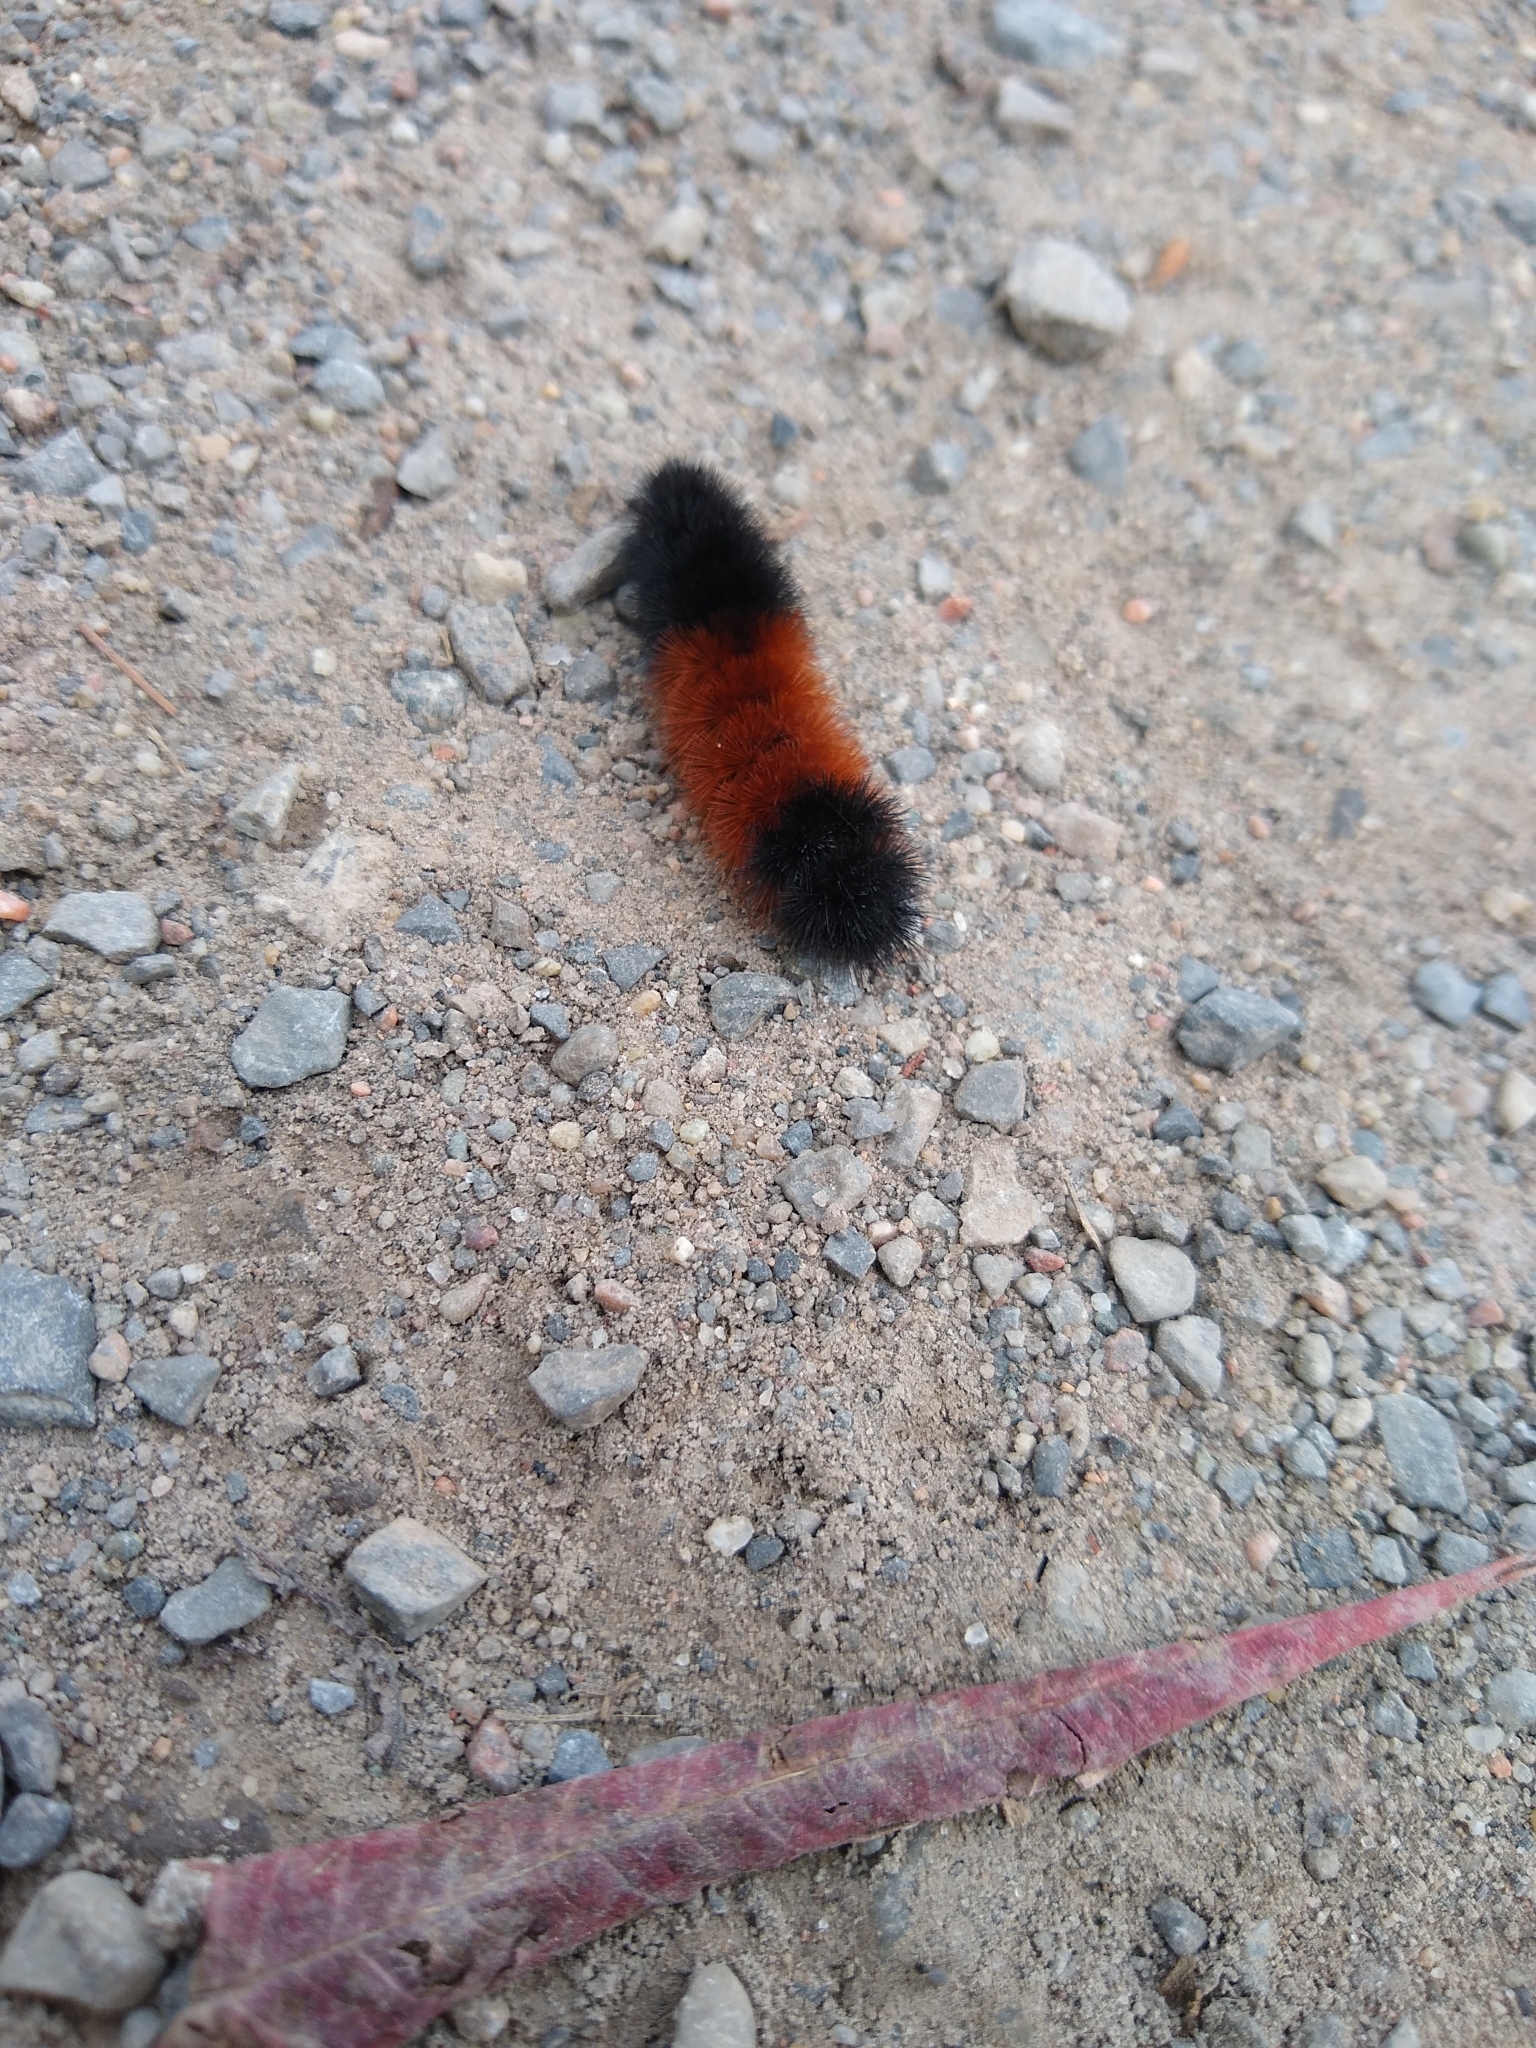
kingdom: Animalia
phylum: Arthropoda
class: Insecta
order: Lepidoptera
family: Erebidae
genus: Pyrrharctia
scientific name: Pyrrharctia isabella
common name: Isabella tiger moth
